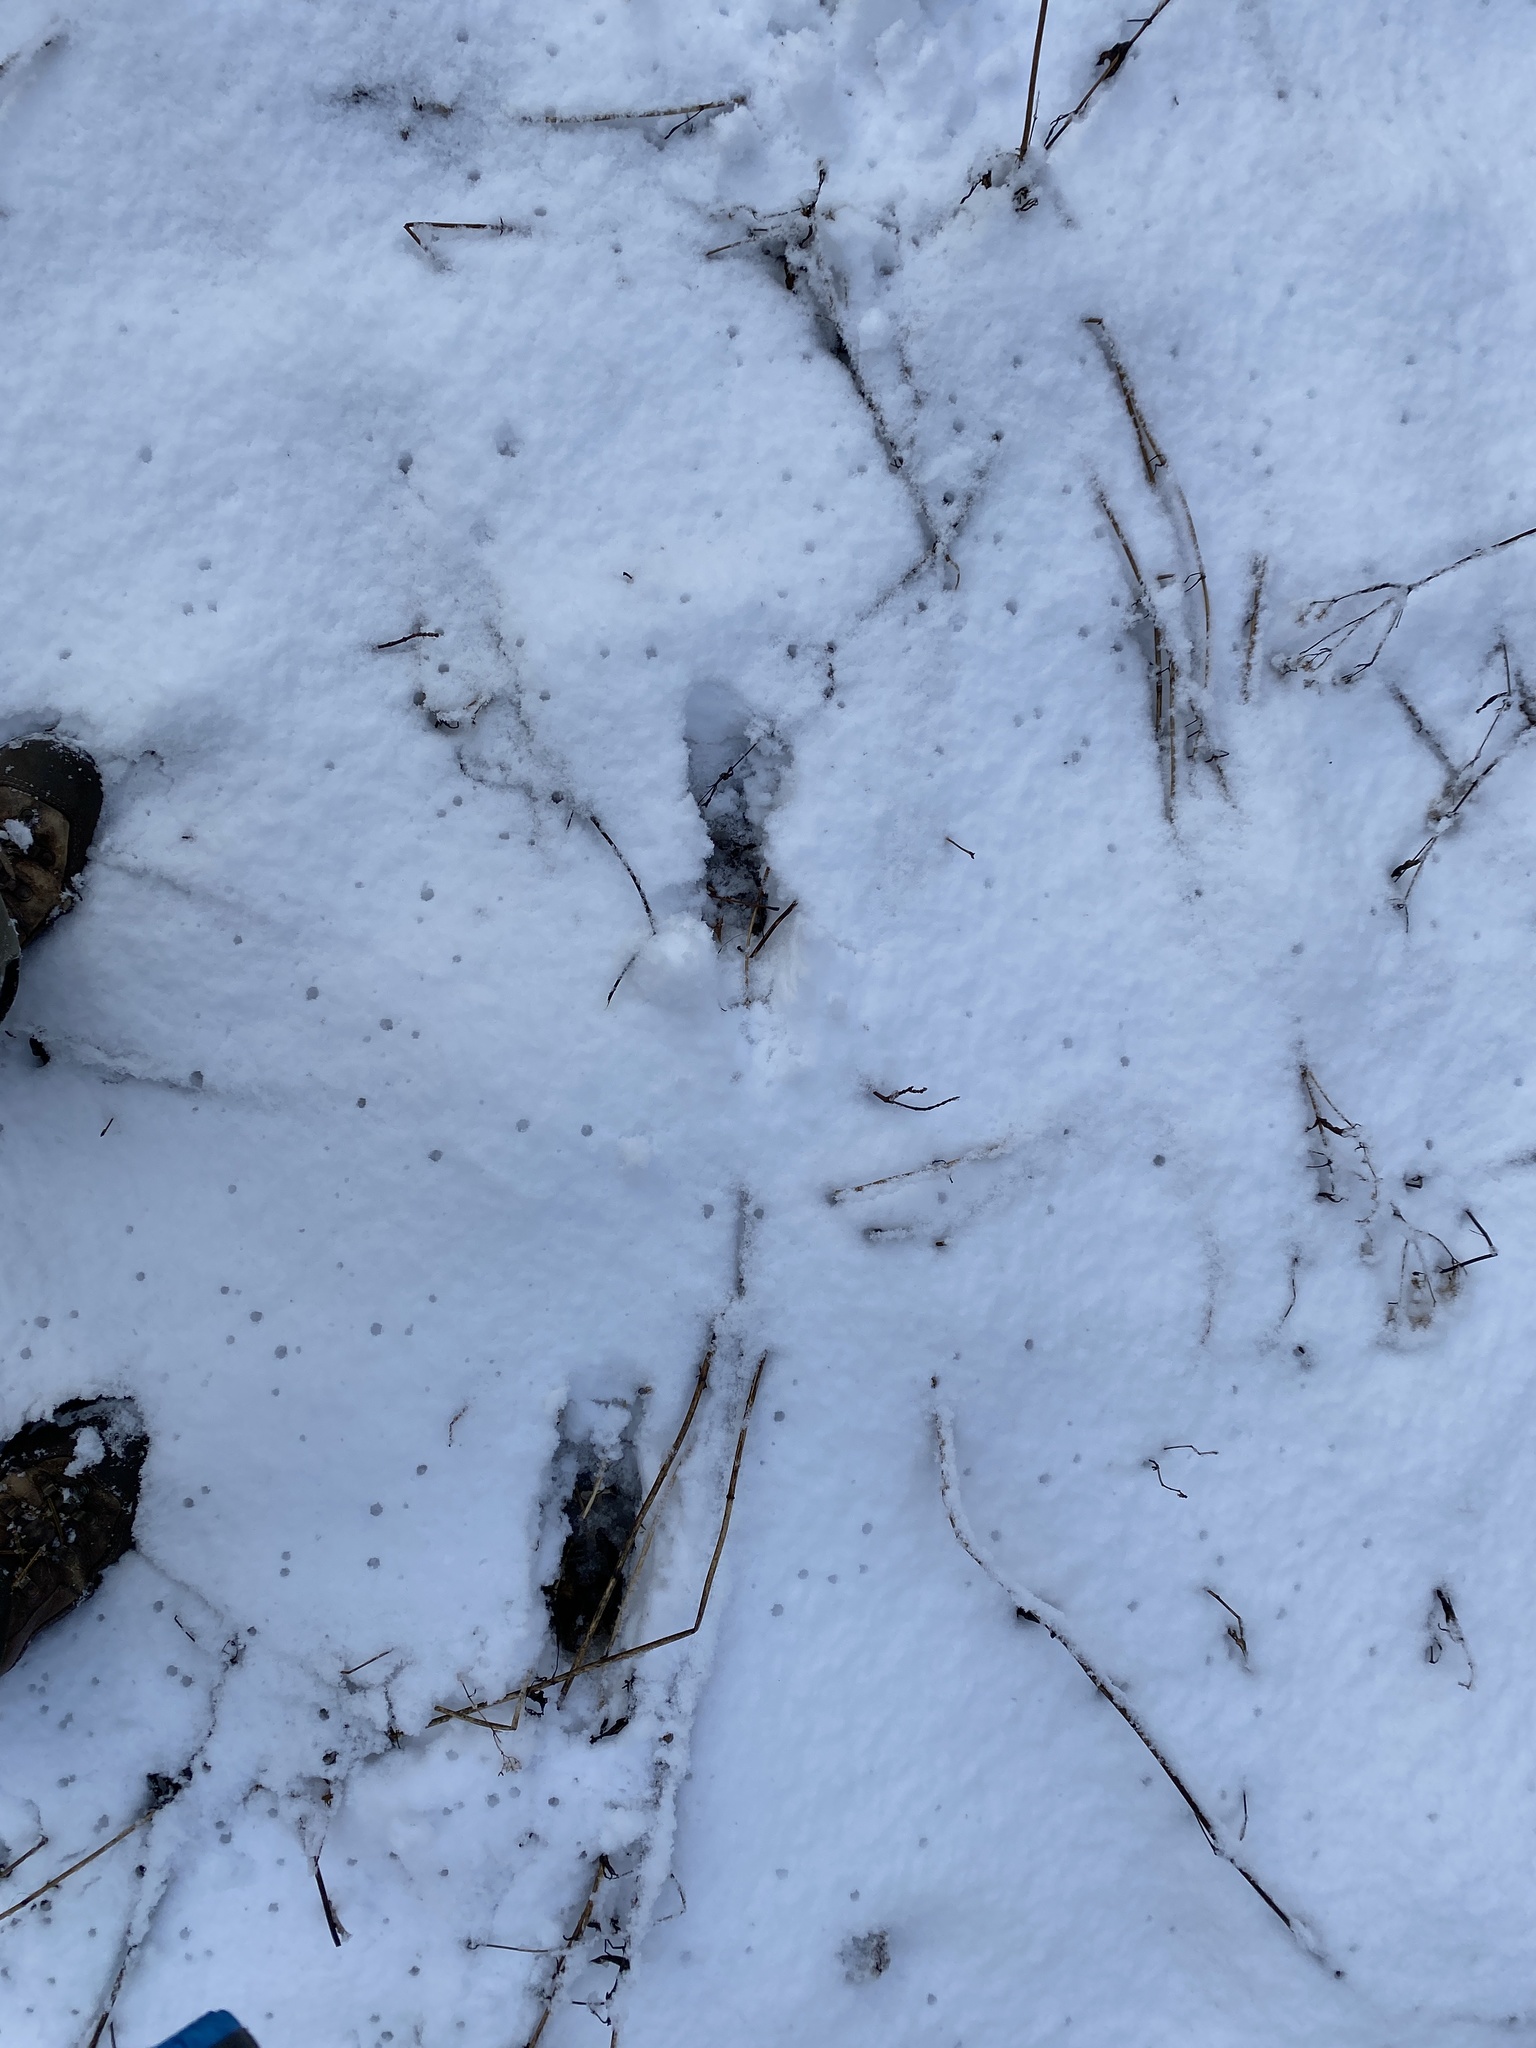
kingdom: Animalia
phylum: Chordata
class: Mammalia
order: Artiodactyla
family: Cervidae
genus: Odocoileus
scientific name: Odocoileus virginianus
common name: White-tailed deer
